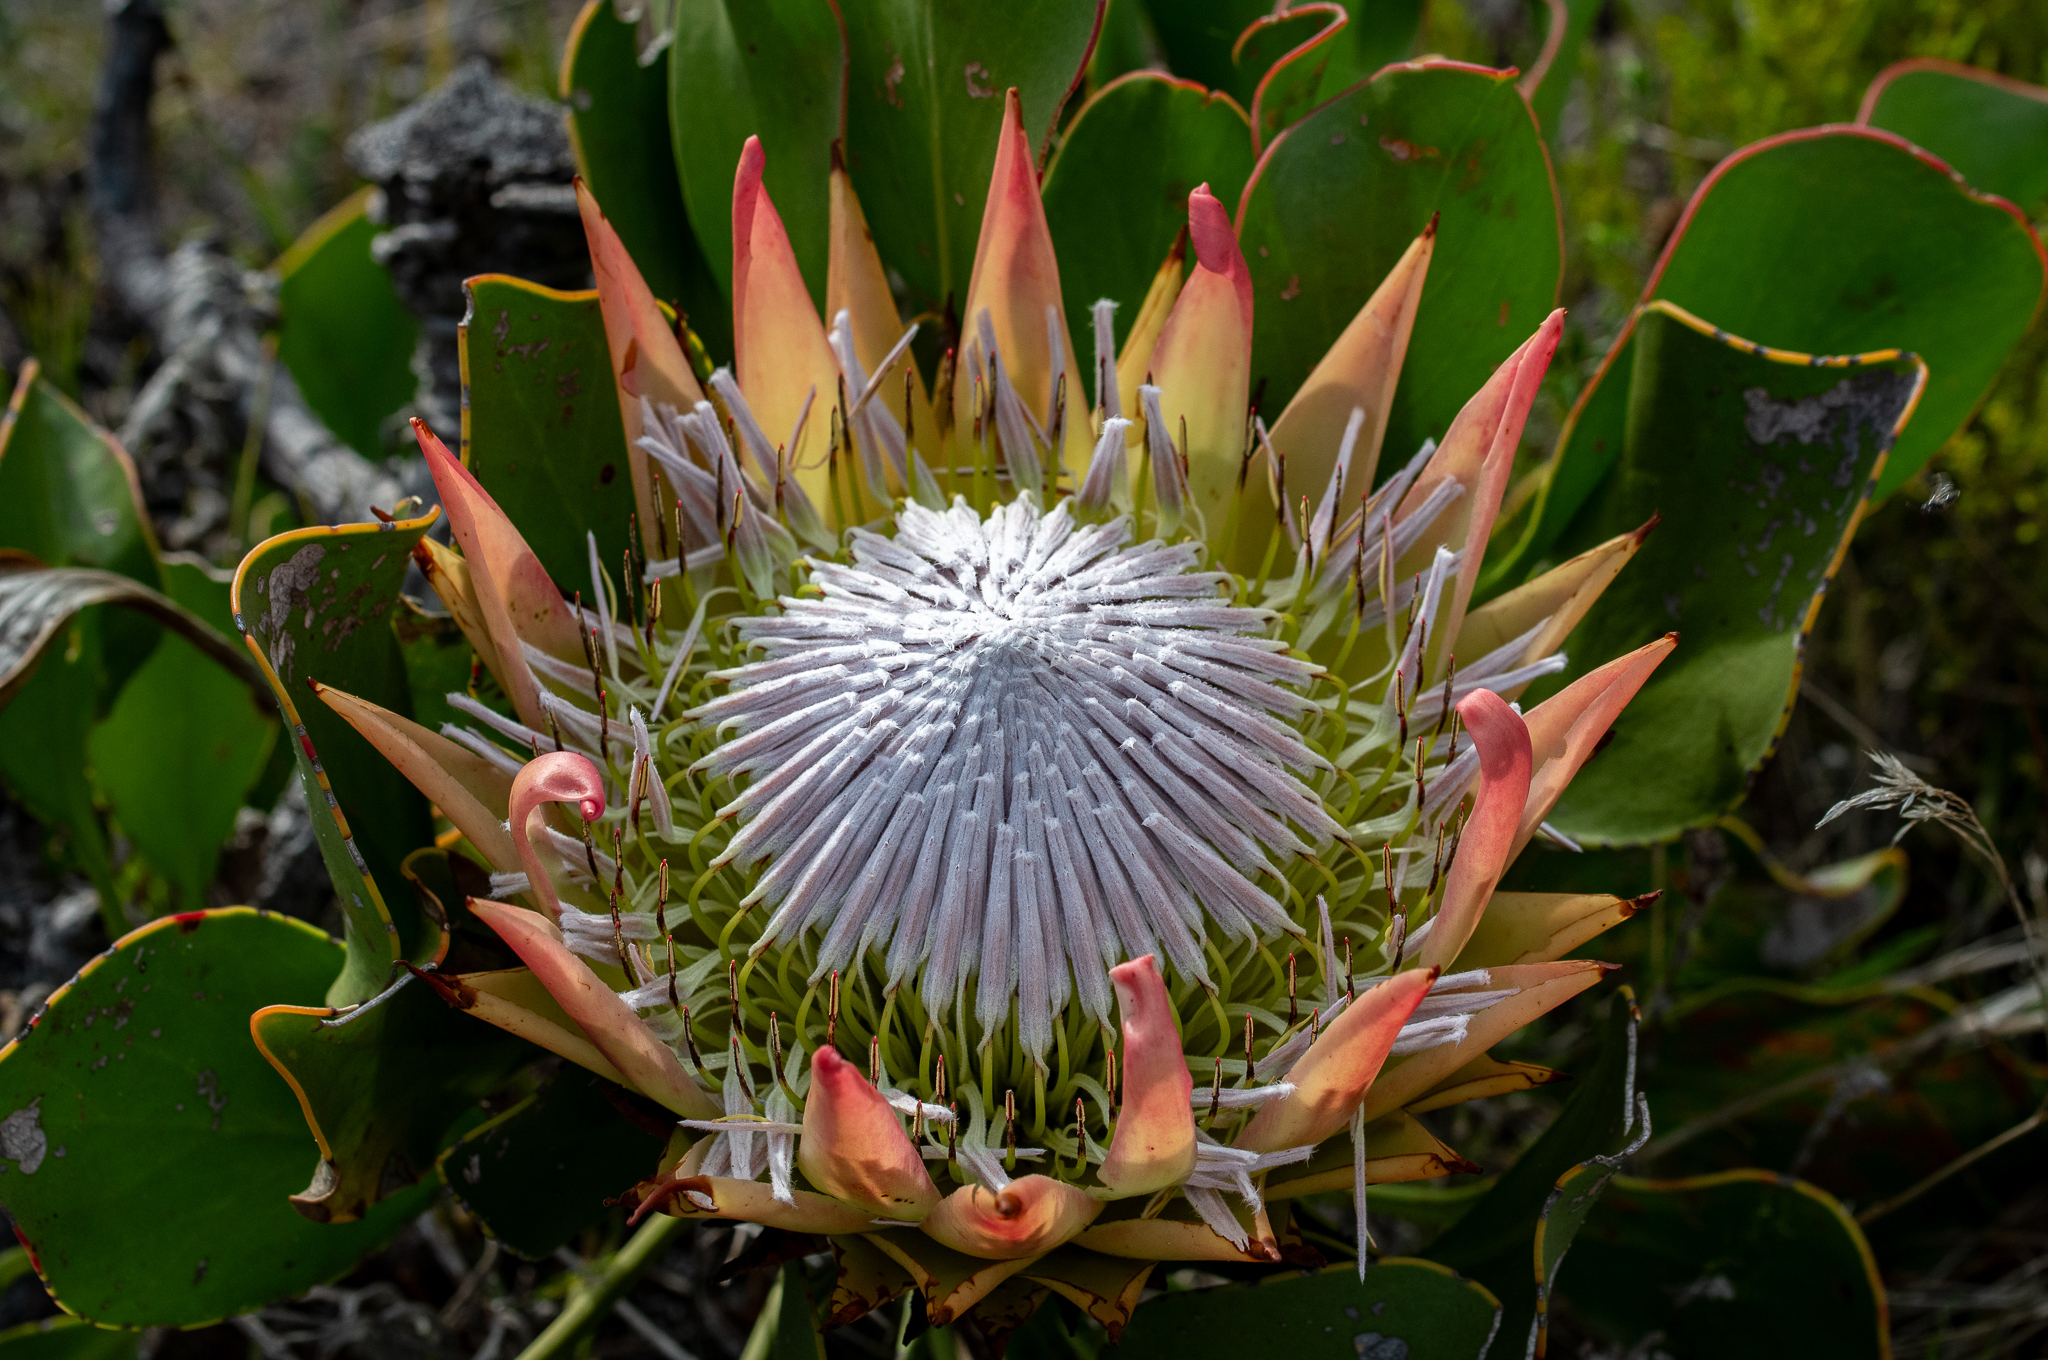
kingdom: Plantae
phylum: Tracheophyta
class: Magnoliopsida
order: Proteales
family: Proteaceae
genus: Protea
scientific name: Protea cynaroides
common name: King protea
